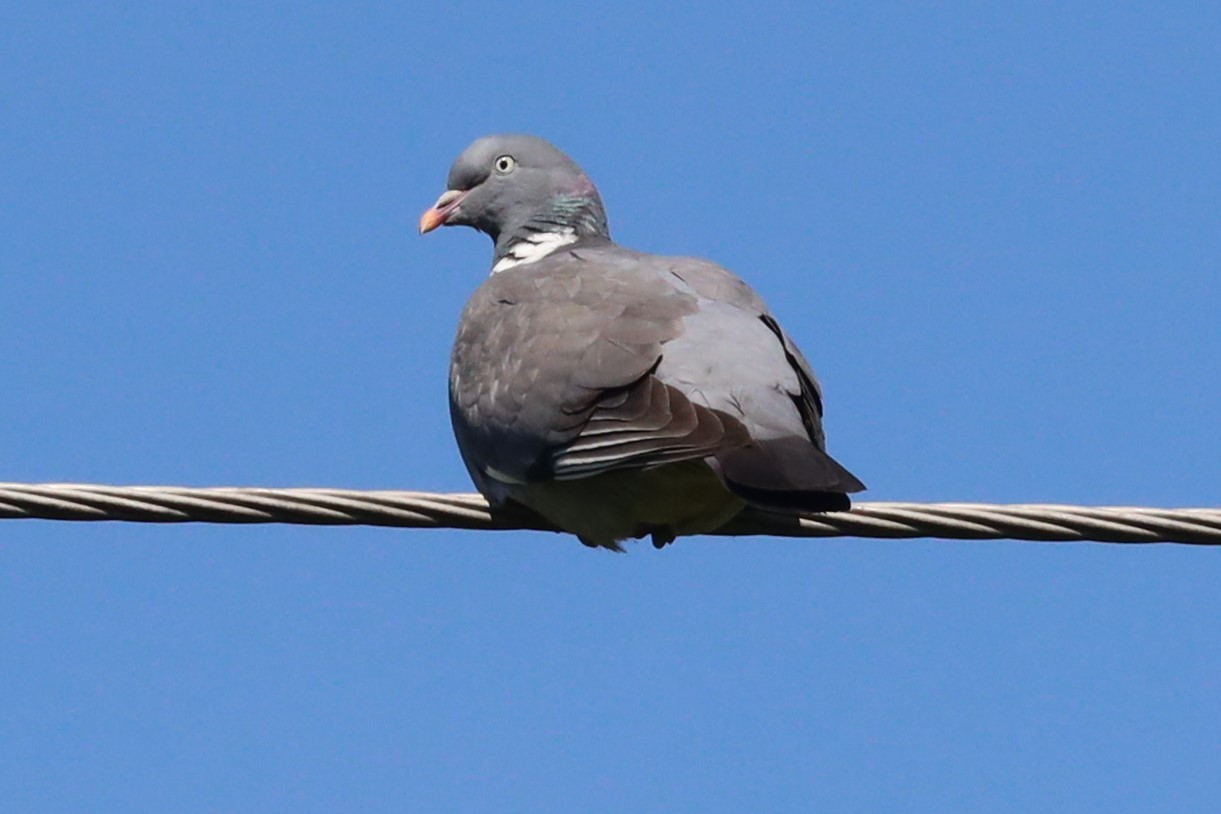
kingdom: Animalia
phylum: Chordata
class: Aves
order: Columbiformes
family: Columbidae
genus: Columba
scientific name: Columba palumbus
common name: Common wood pigeon
